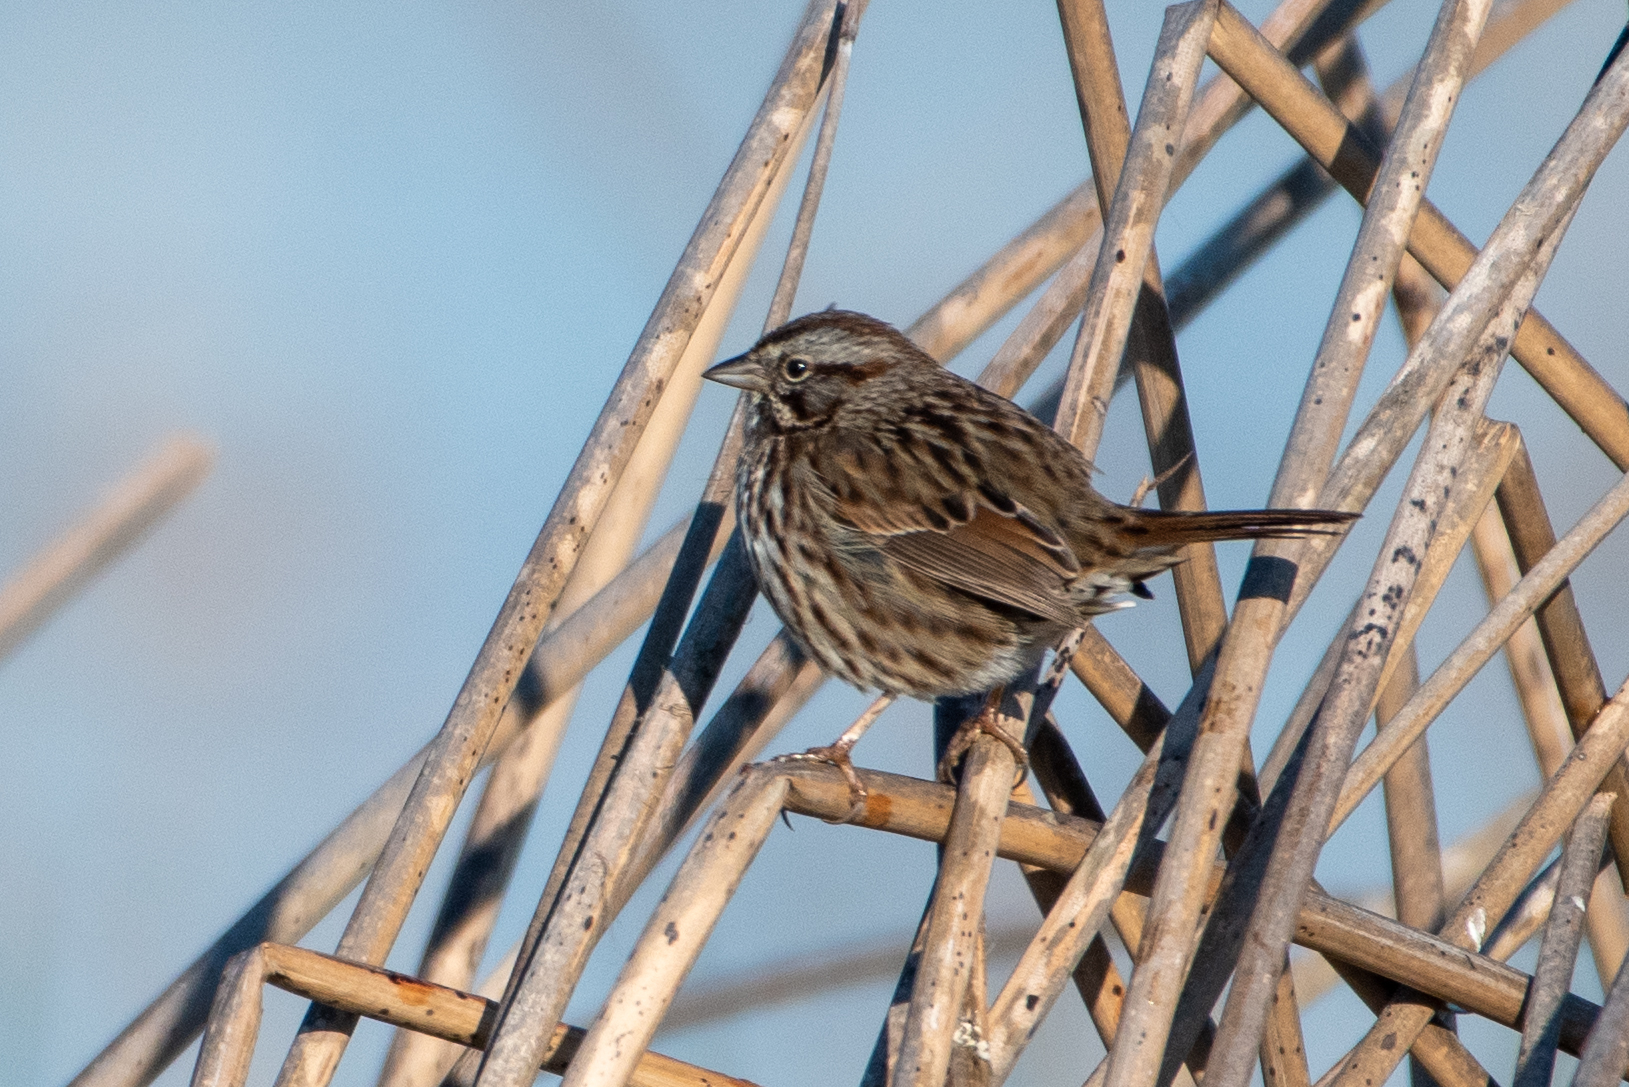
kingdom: Animalia
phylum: Chordata
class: Aves
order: Passeriformes
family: Passerellidae
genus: Melospiza
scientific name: Melospiza melodia
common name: Song sparrow
